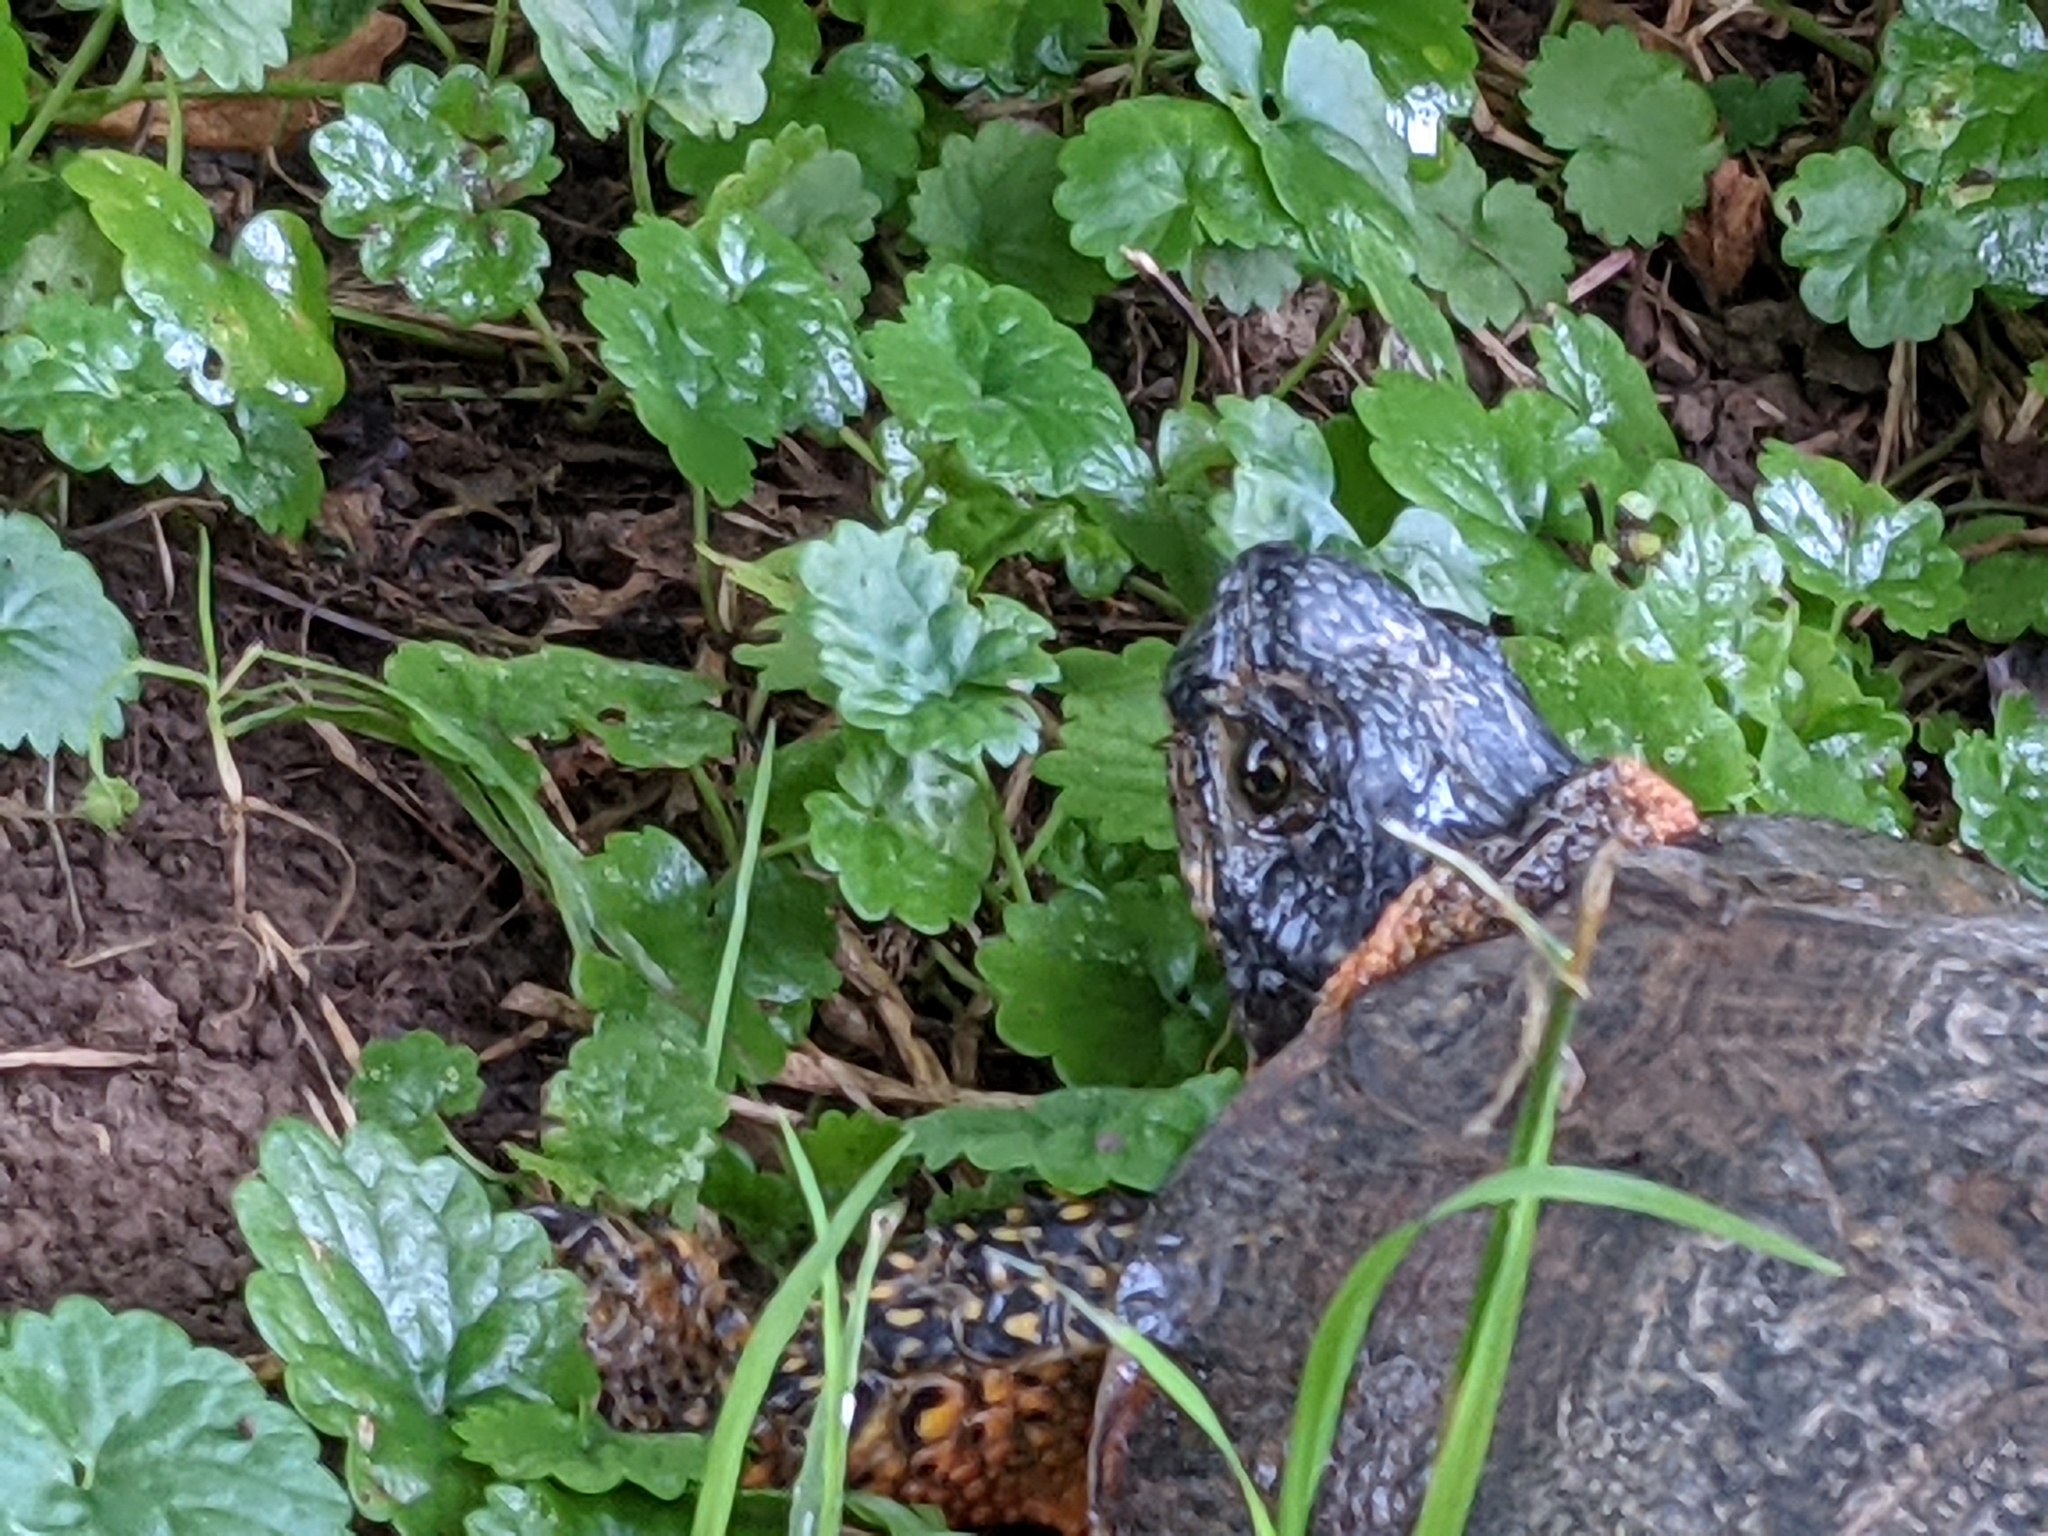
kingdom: Animalia
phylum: Chordata
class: Testudines
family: Emydidae
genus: Glyptemys
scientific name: Glyptemys insculpta
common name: Wood turtle
